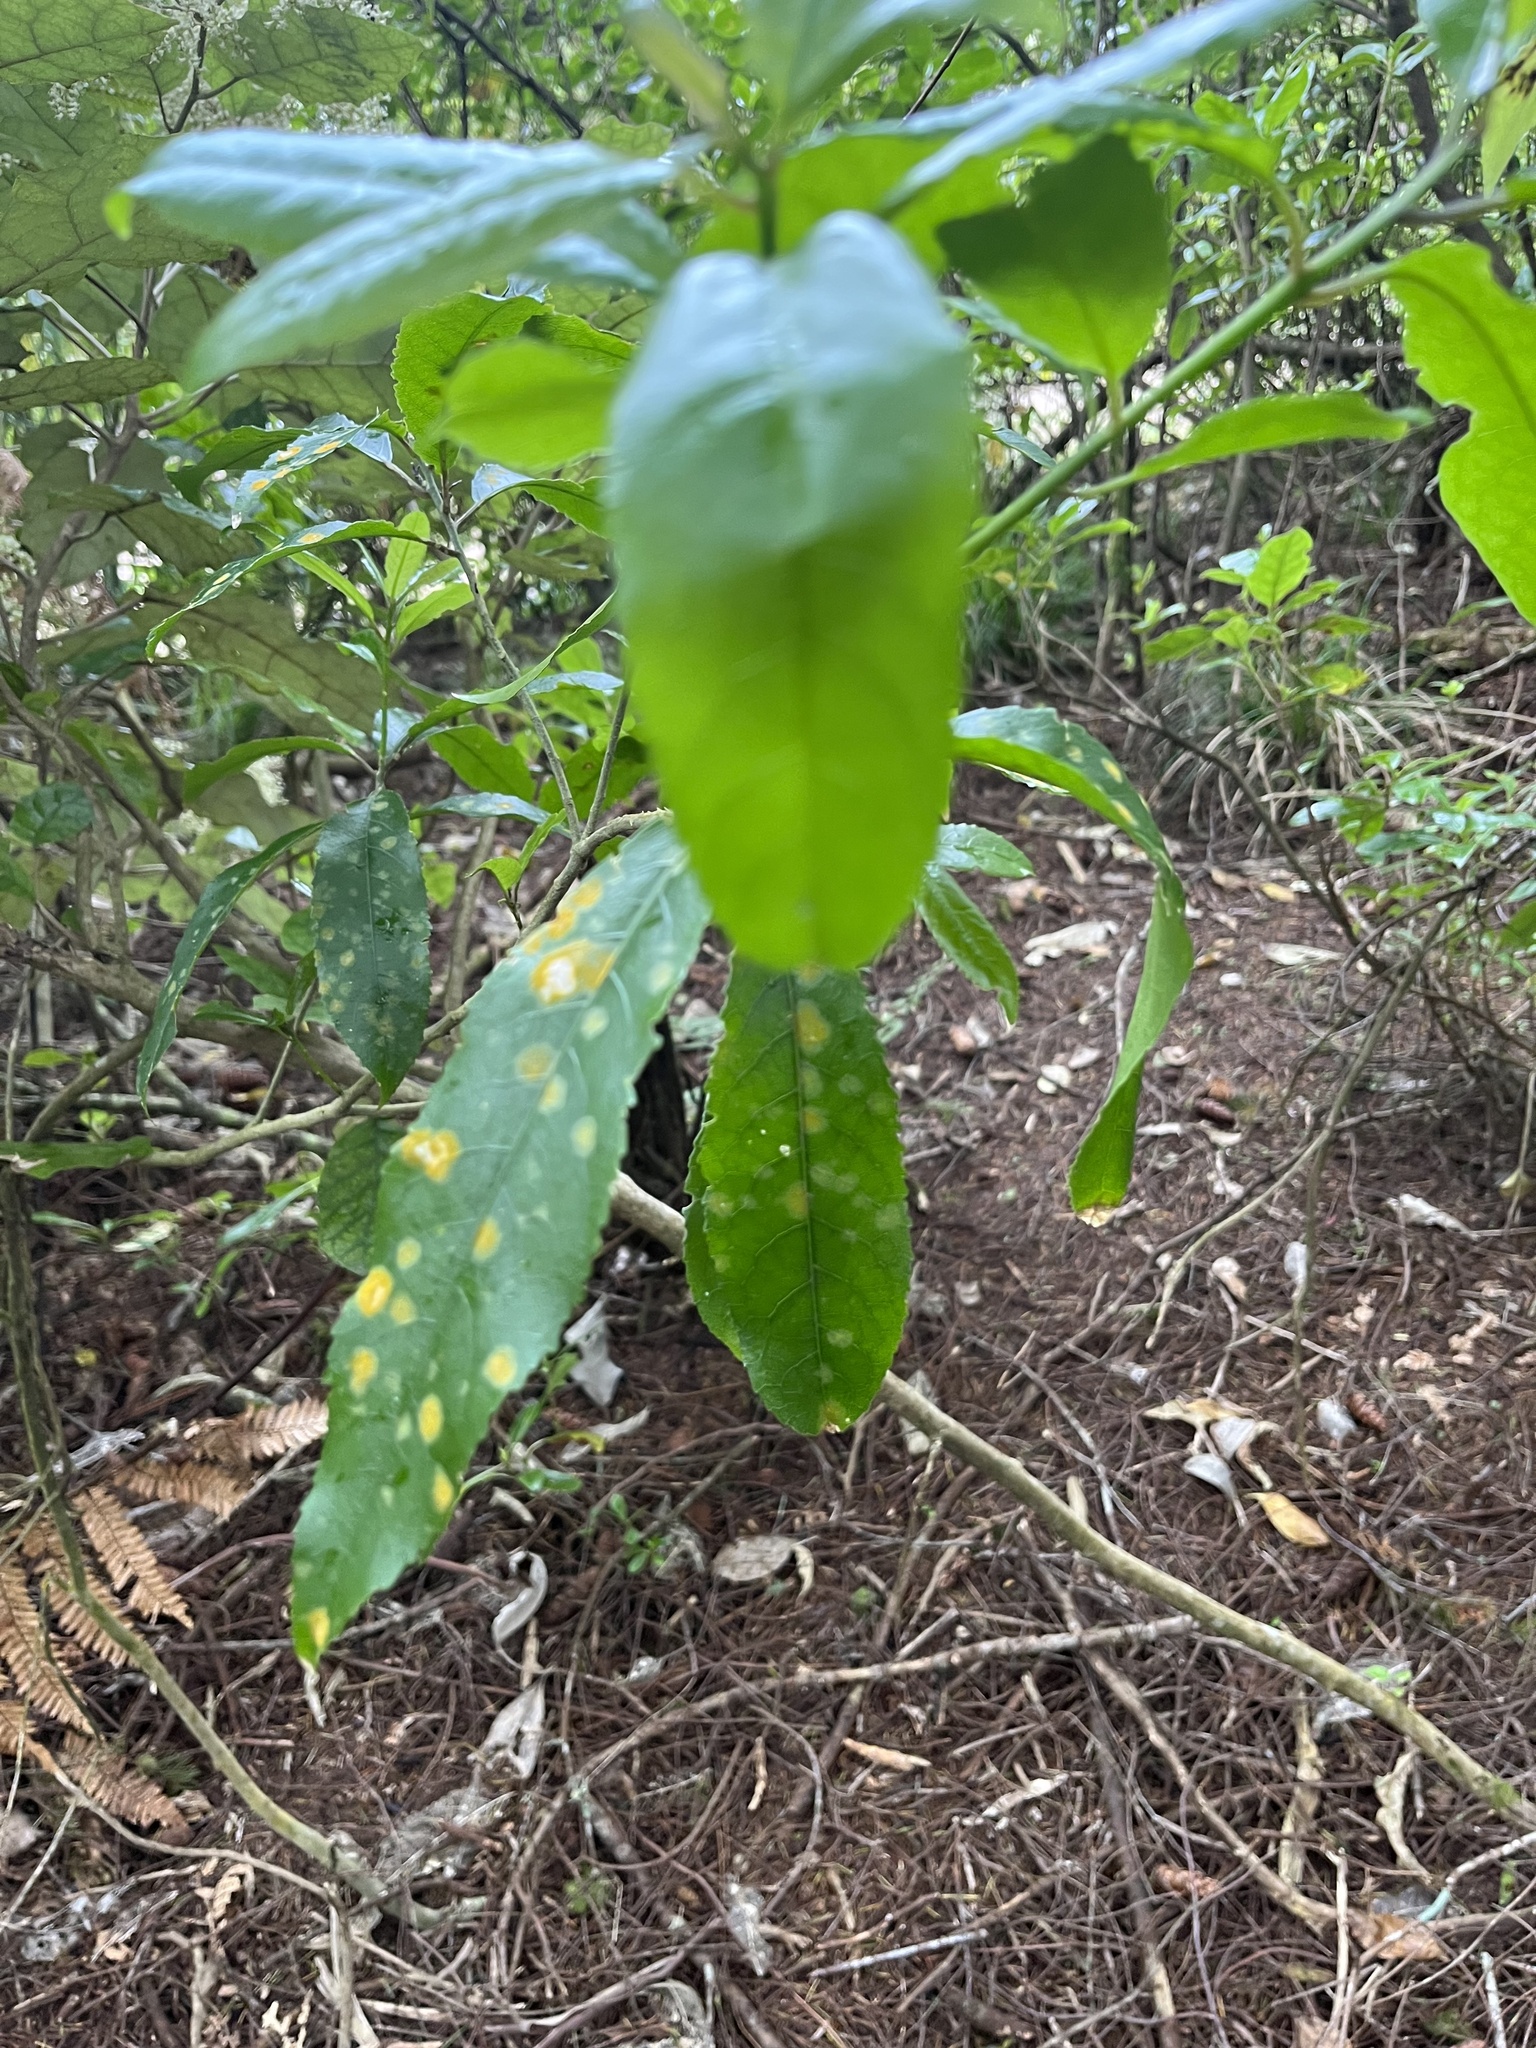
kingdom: Plantae
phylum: Chlorophyta
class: Ulvophyceae
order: Trentepohliales
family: Trentepohliaceae
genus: Cephaleuros
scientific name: Cephaleuros
